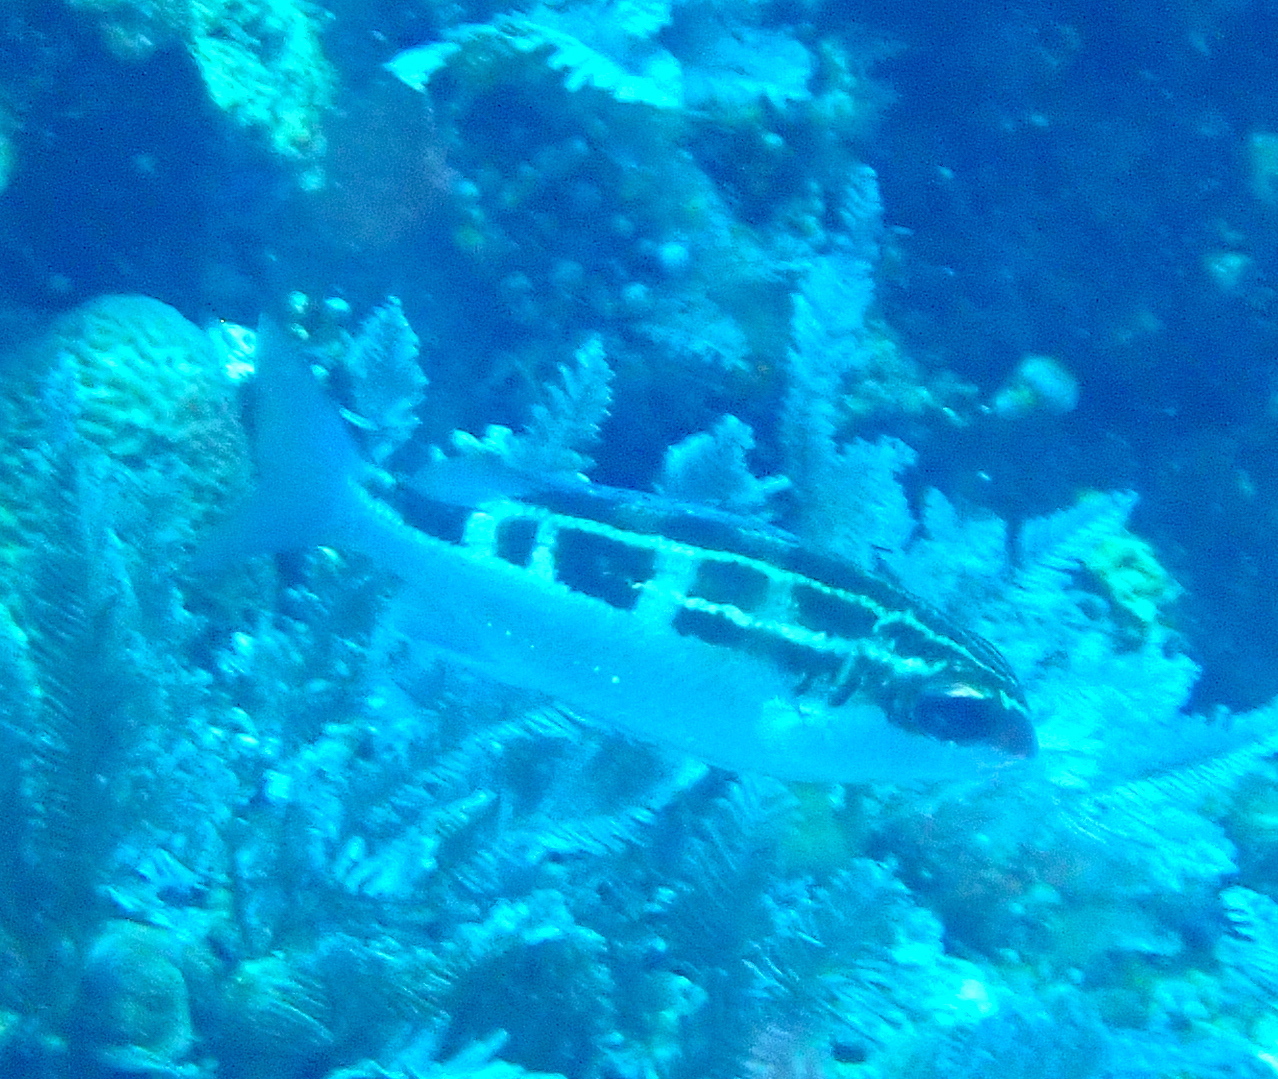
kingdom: Animalia
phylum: Chordata
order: Perciformes
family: Nemipteridae
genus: Scolopsis
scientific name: Scolopsis lineata
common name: Striped monocle bream
